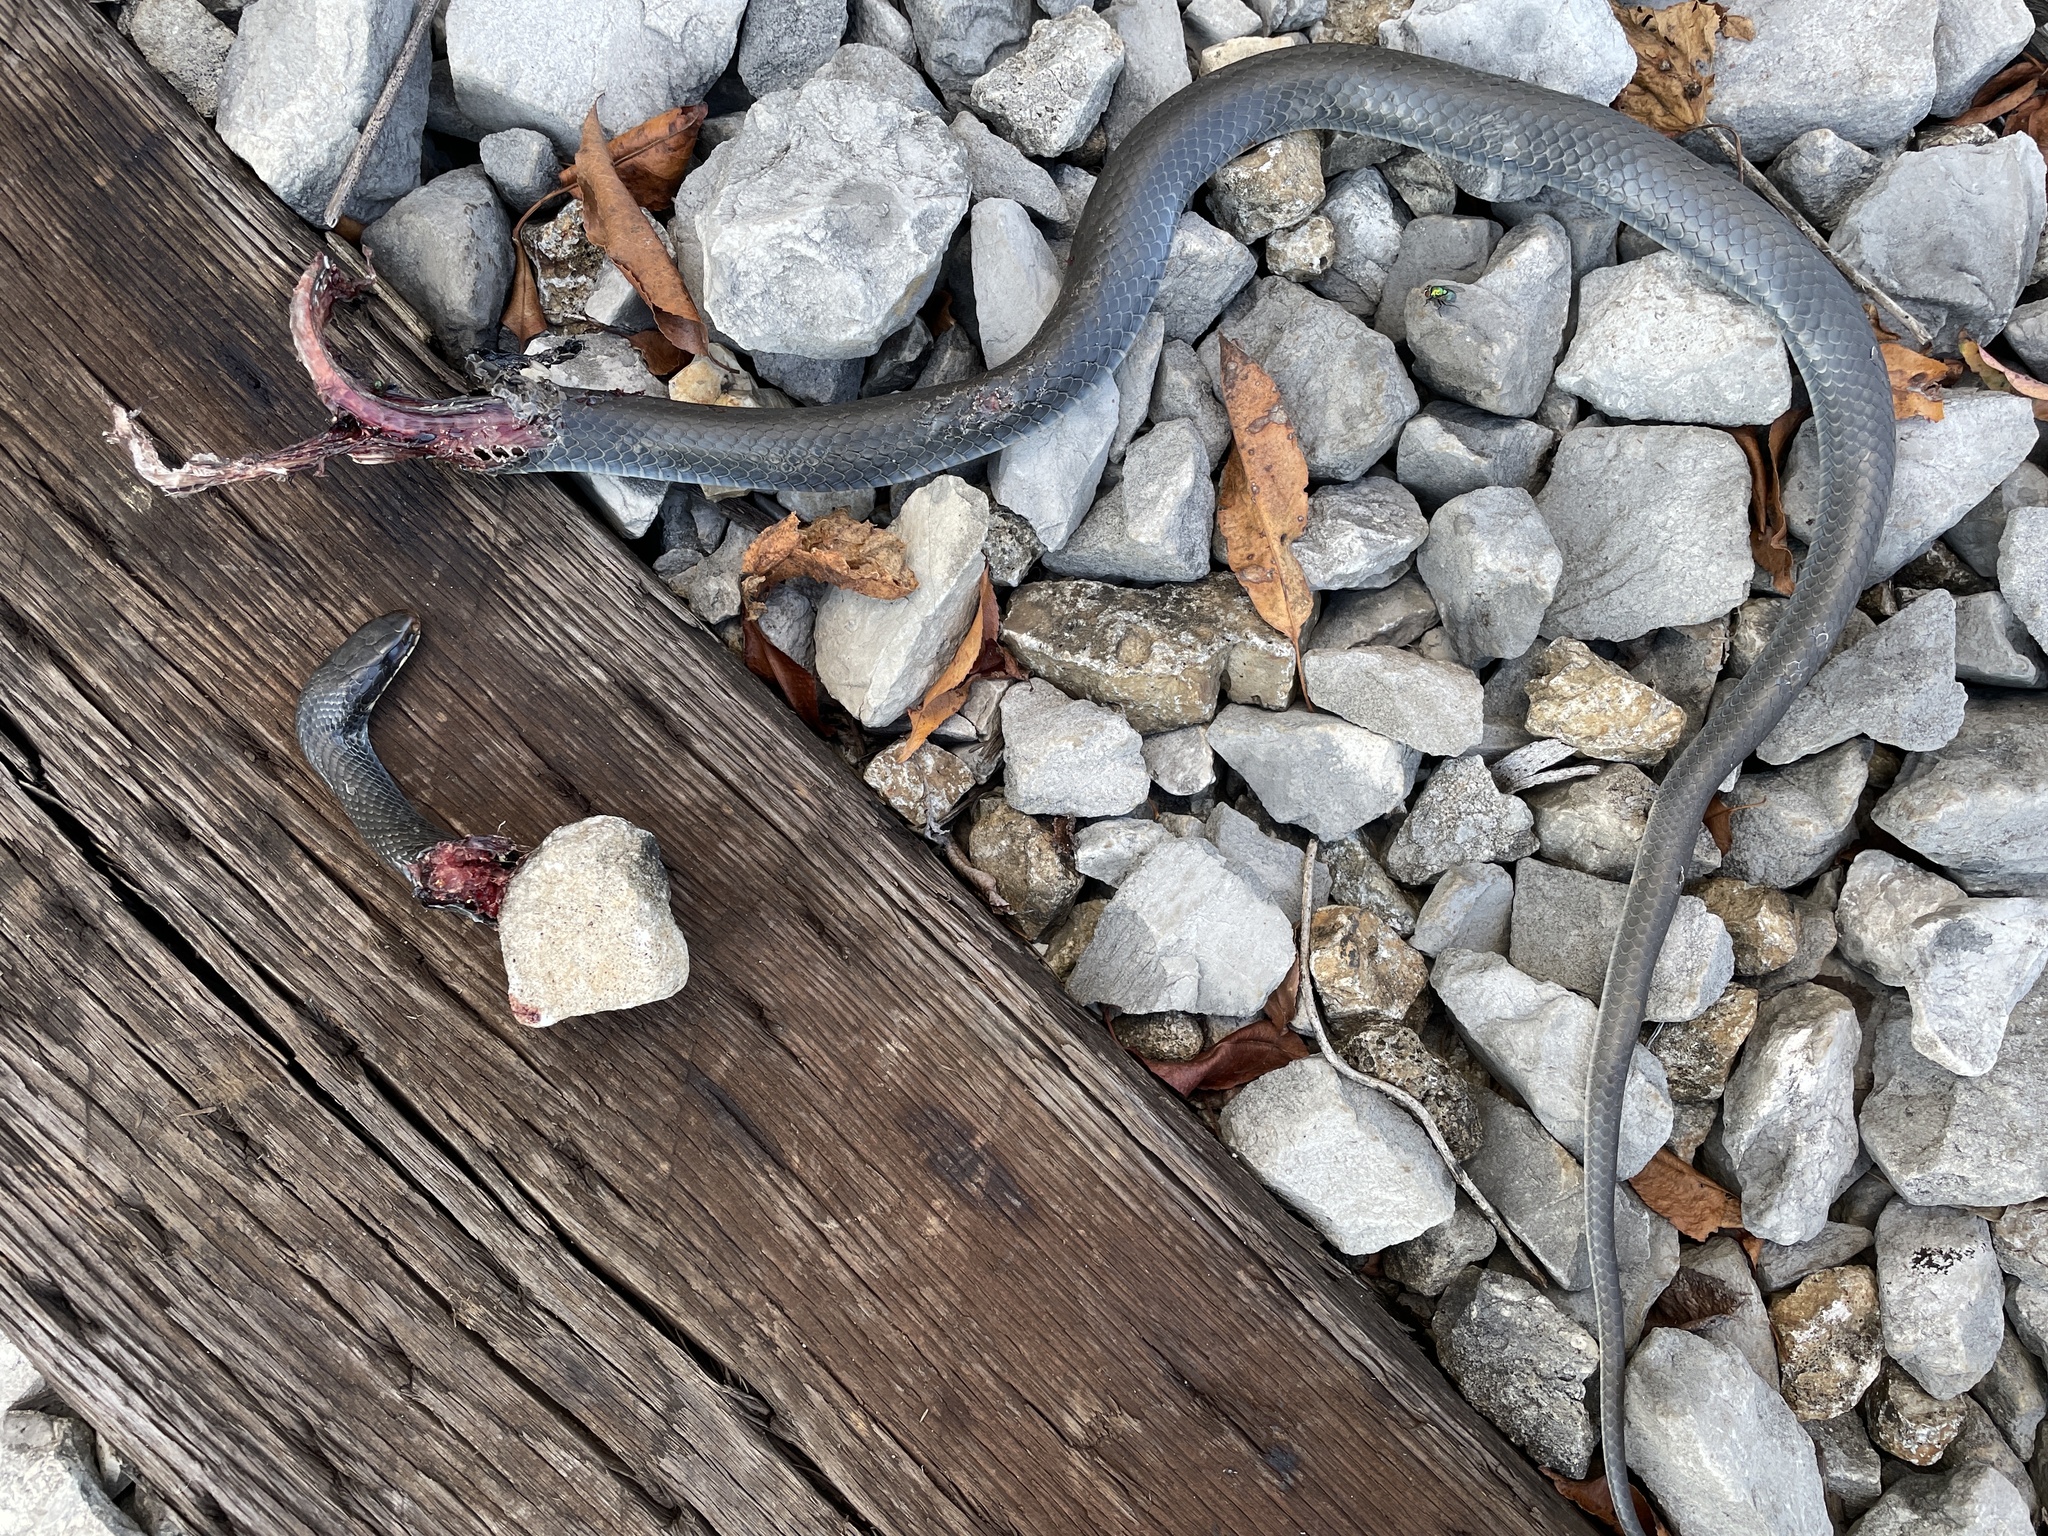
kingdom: Animalia
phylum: Chordata
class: Squamata
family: Colubridae
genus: Coluber
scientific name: Coluber constrictor
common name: Eastern racer
